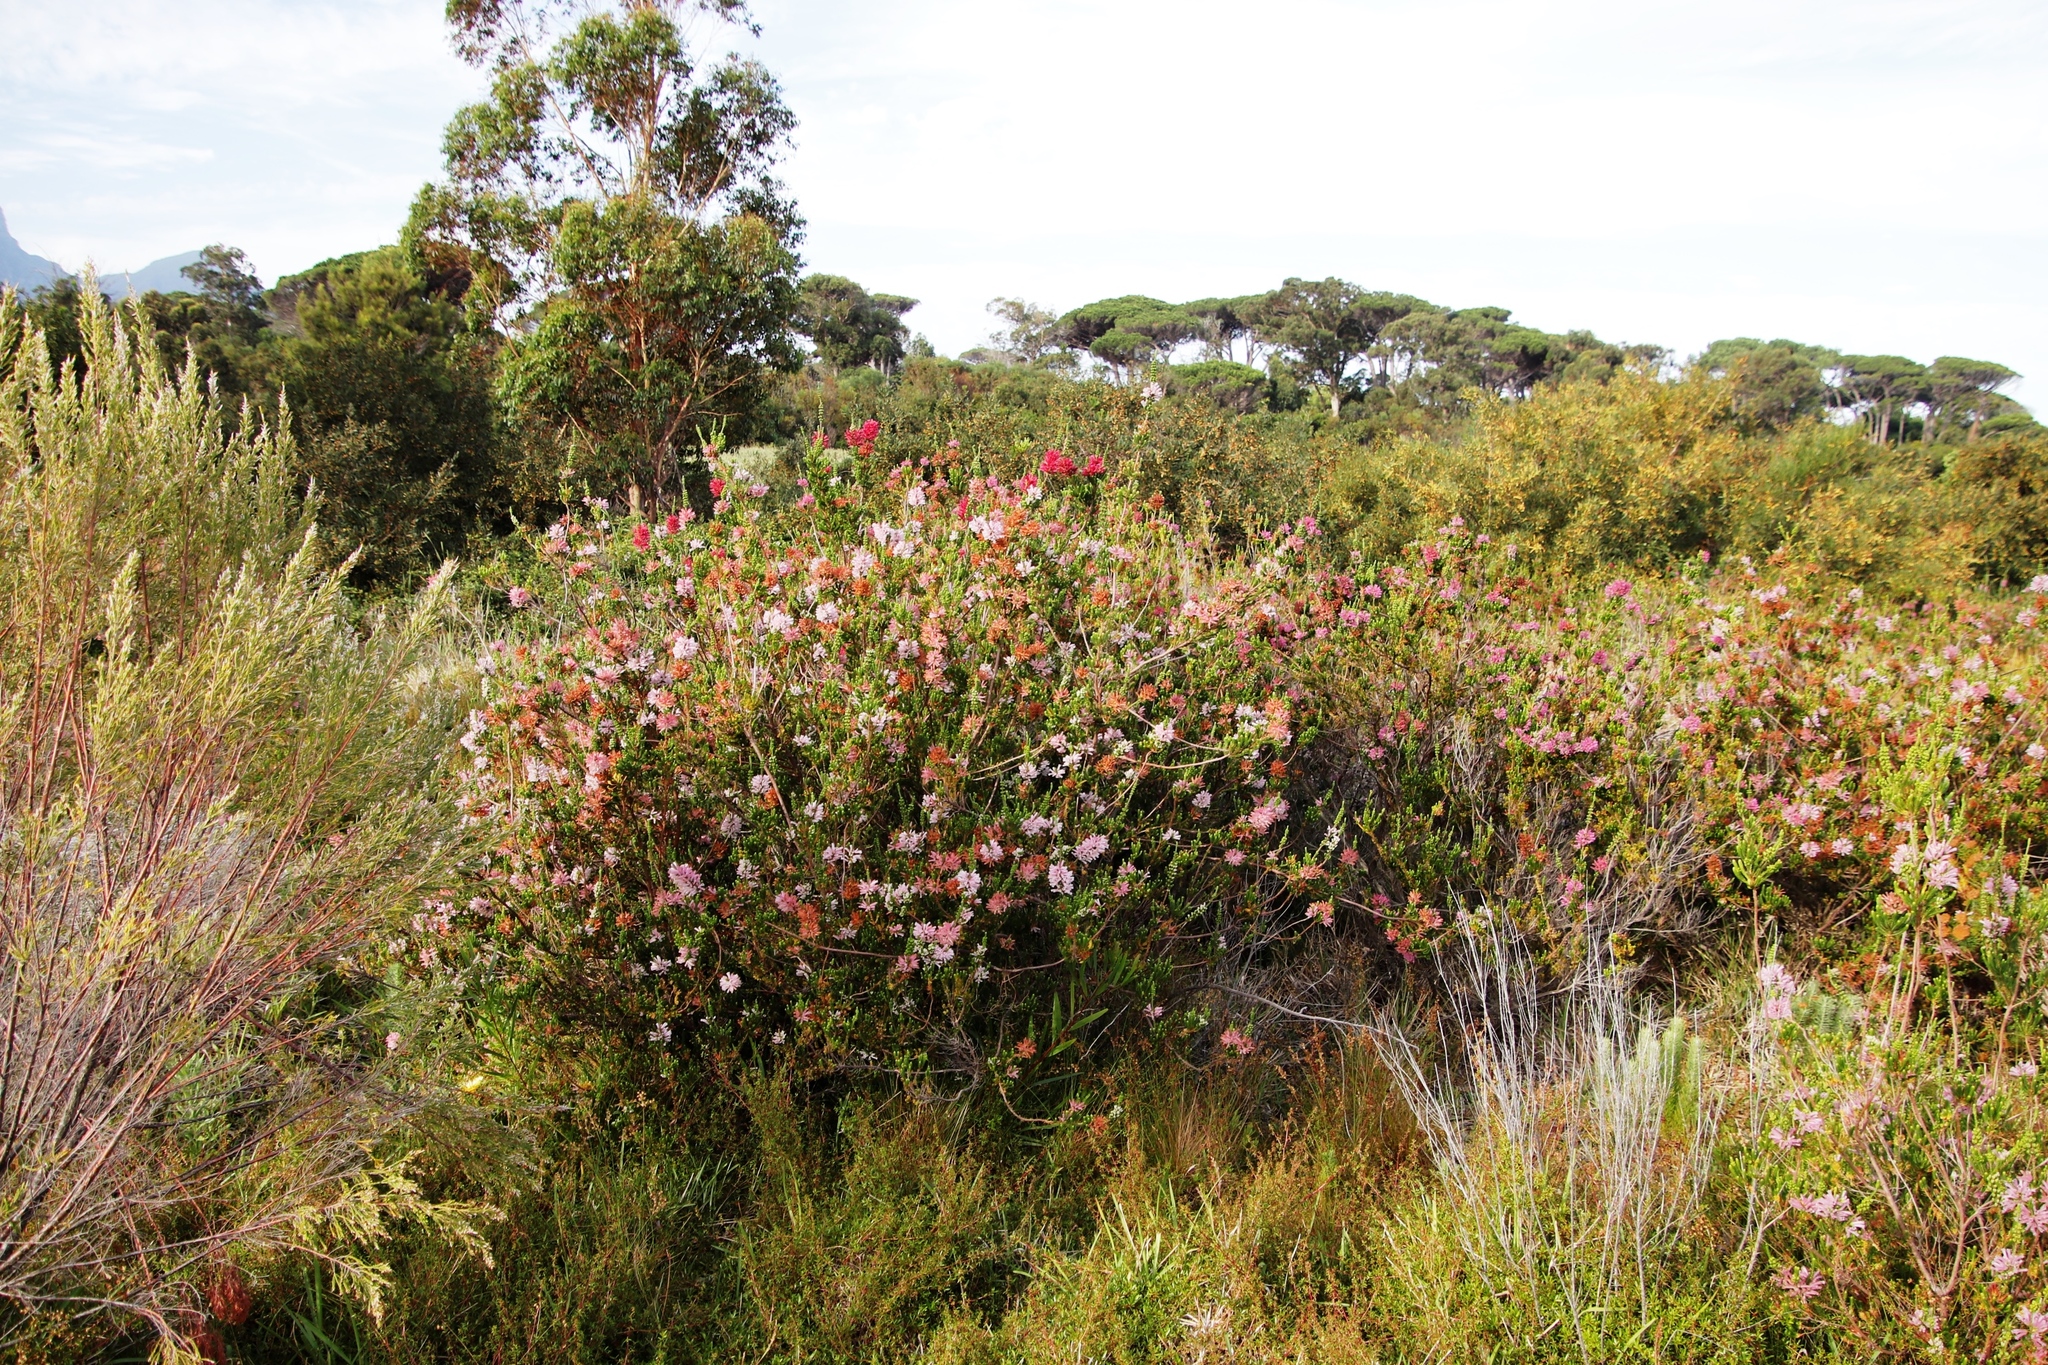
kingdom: Plantae
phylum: Tracheophyta
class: Magnoliopsida
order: Ericales
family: Ericaceae
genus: Erica
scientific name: Erica verticillata
